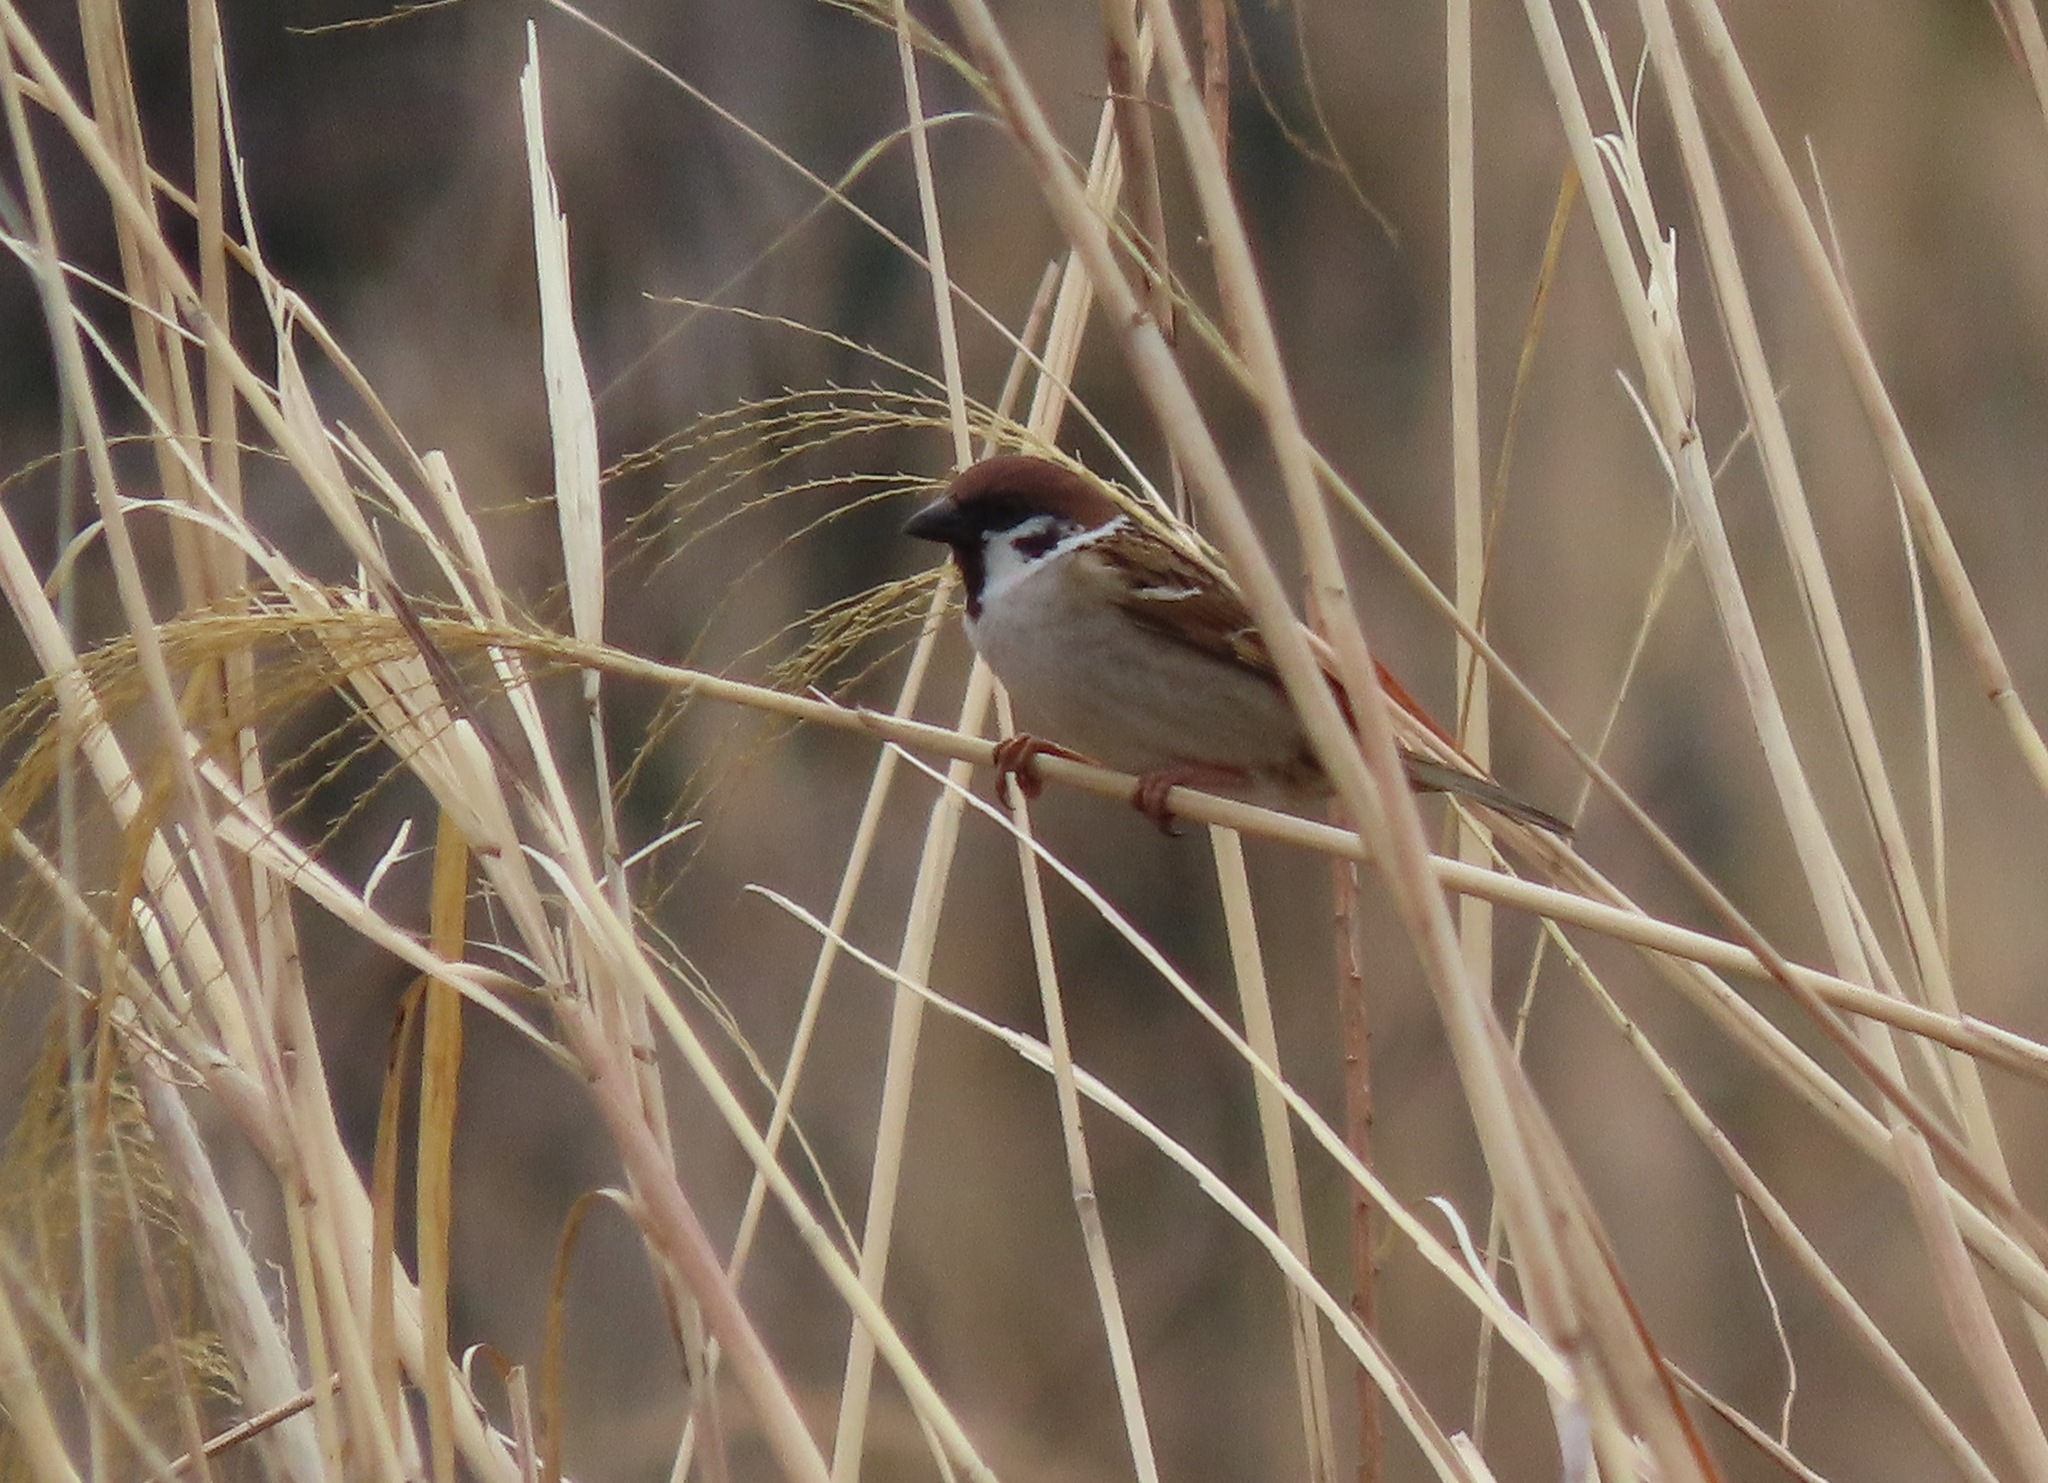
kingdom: Animalia
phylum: Chordata
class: Aves
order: Passeriformes
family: Passeridae
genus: Passer
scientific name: Passer montanus
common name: Eurasian tree sparrow
